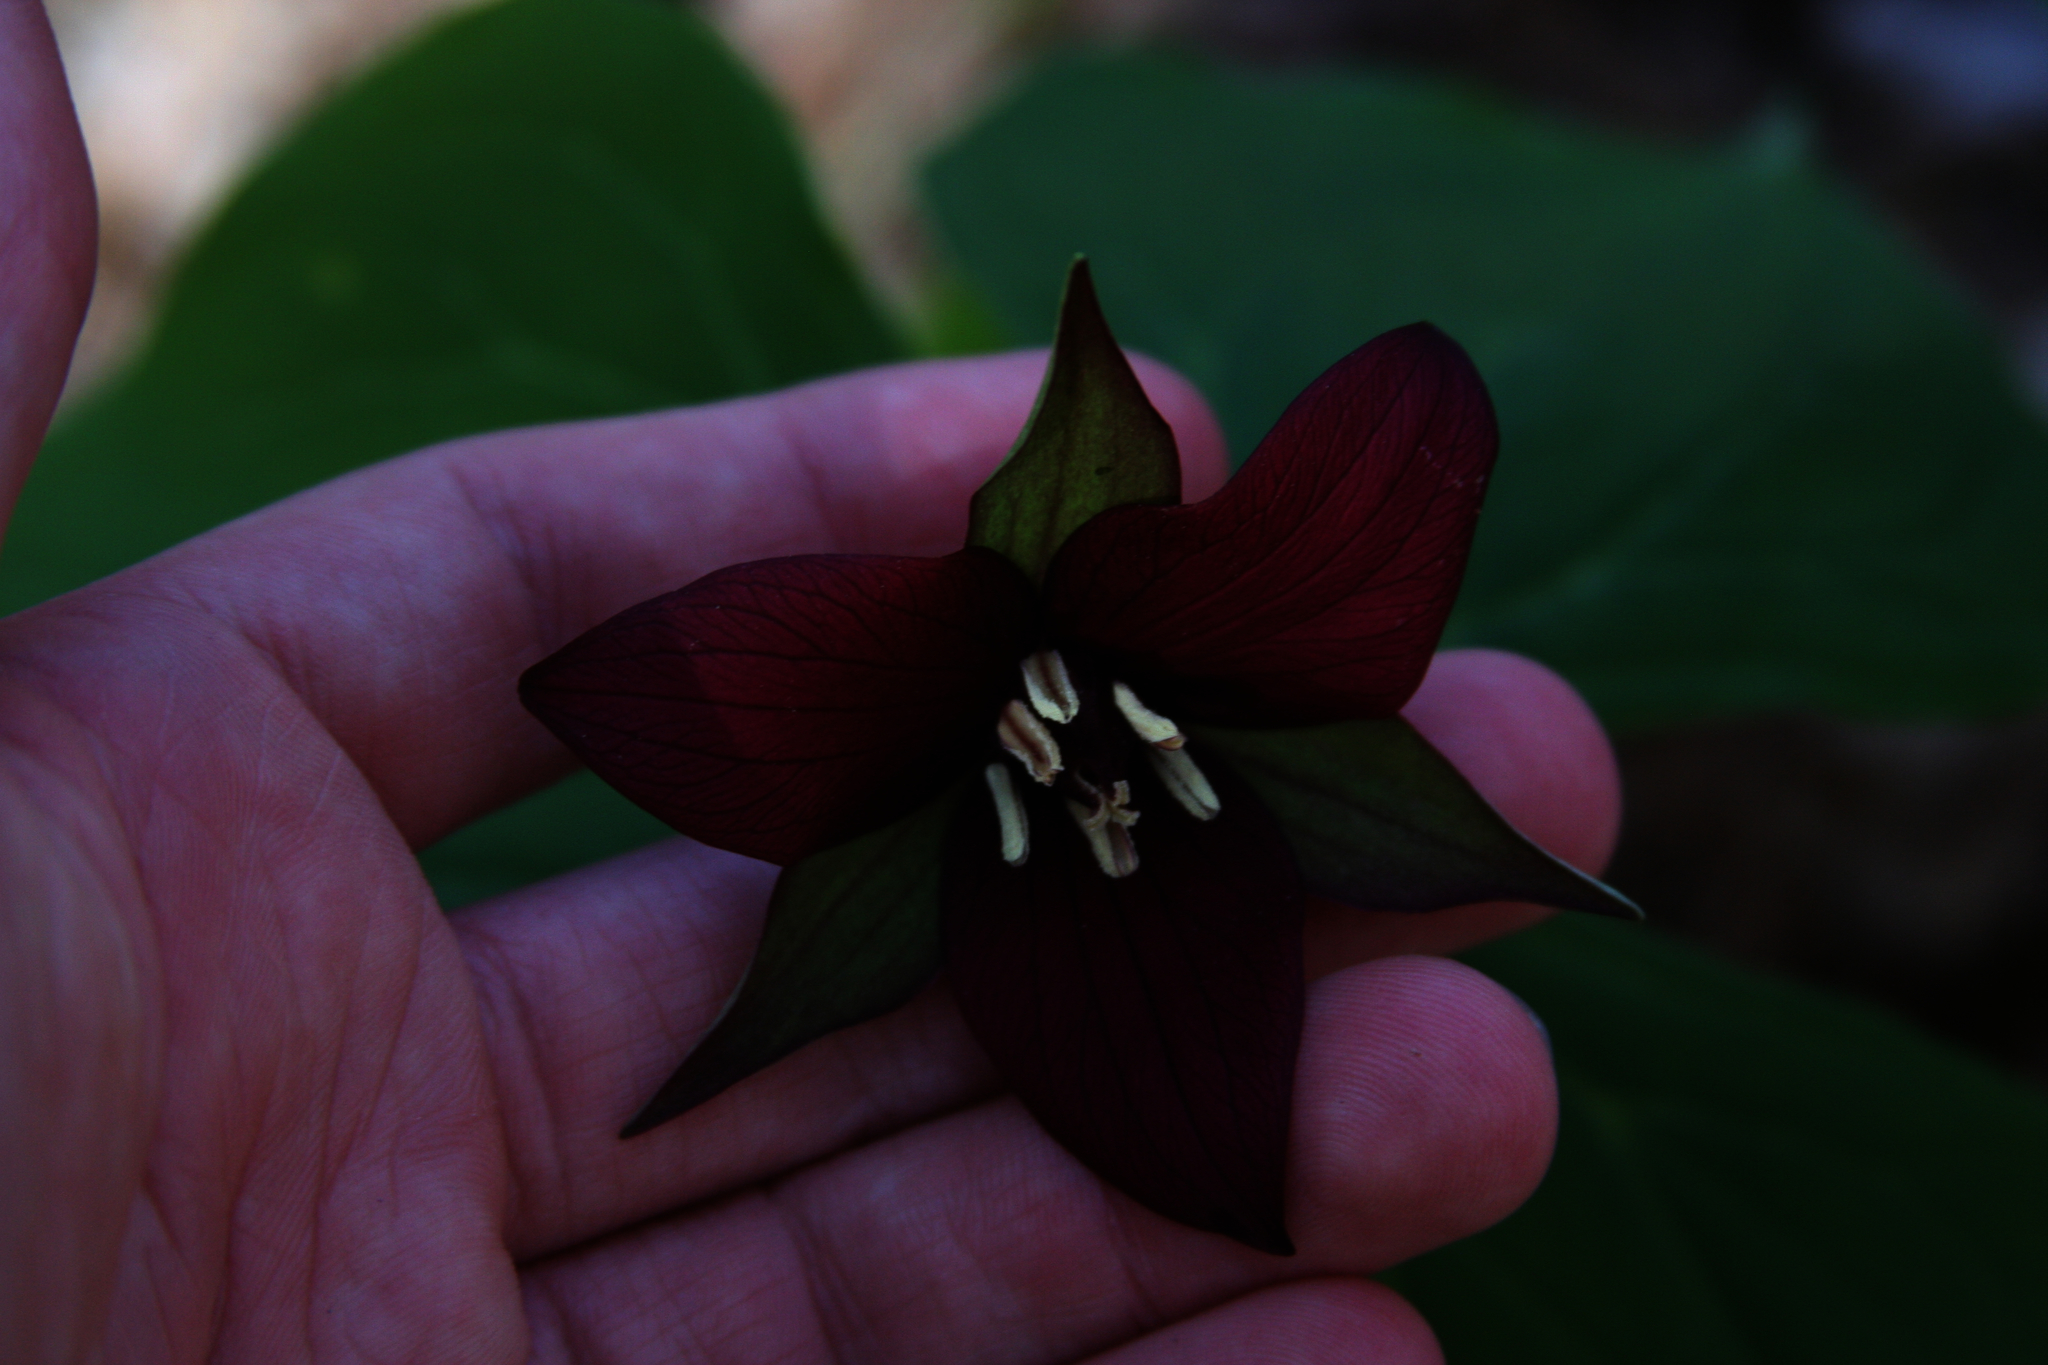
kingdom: Plantae
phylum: Tracheophyta
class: Liliopsida
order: Liliales
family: Melanthiaceae
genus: Trillium
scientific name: Trillium erectum
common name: Purple trillium
